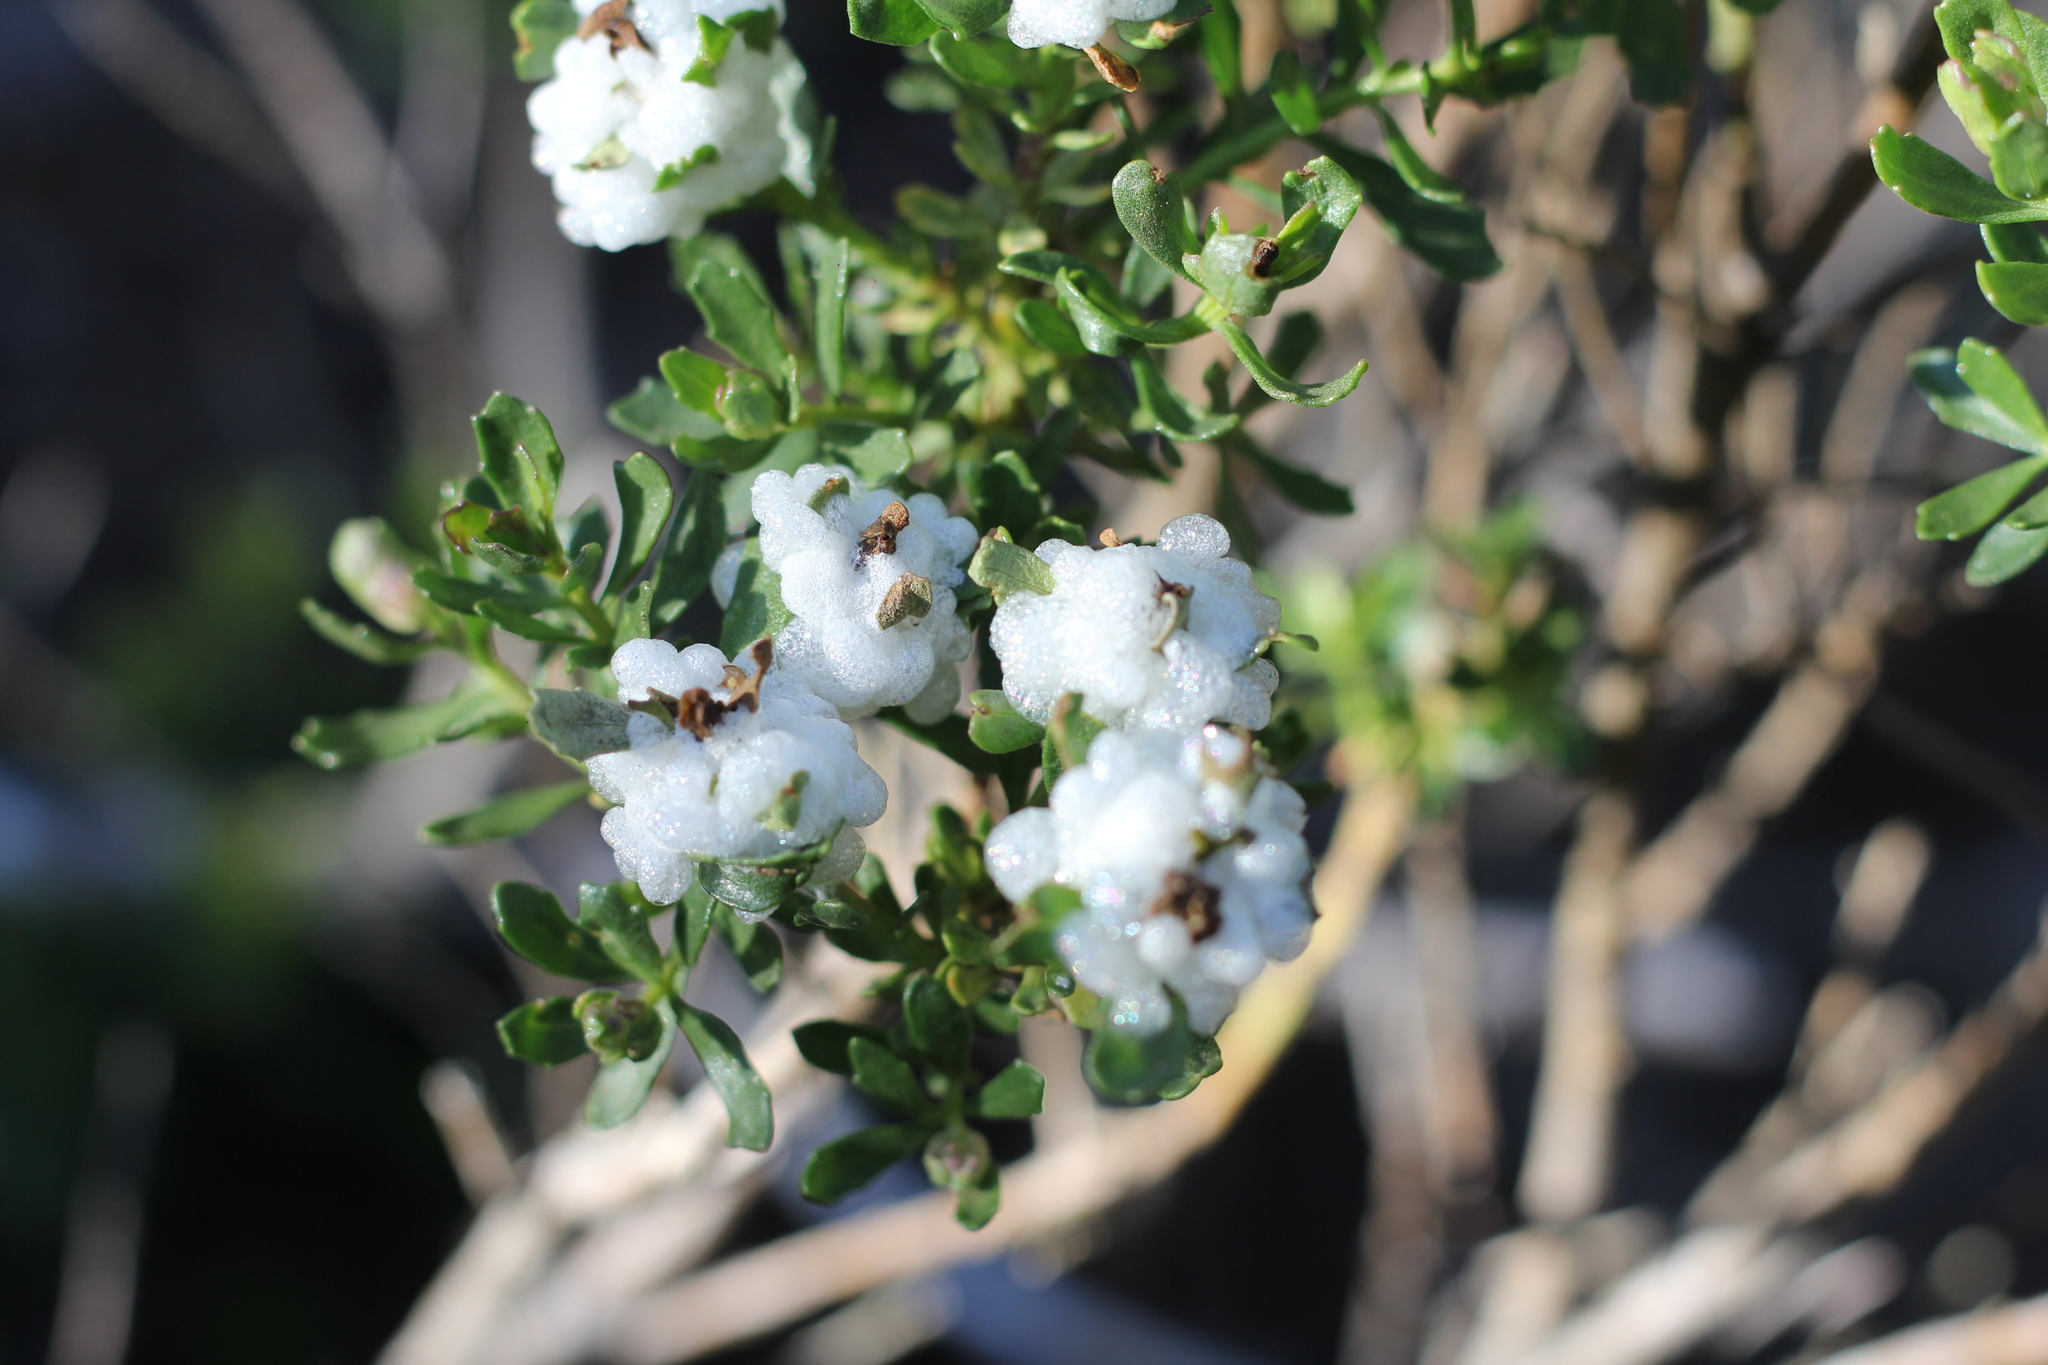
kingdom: Animalia
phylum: Arthropoda
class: Insecta
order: Diptera
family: Tephritidae
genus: Rachiptera
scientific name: Rachiptera limbata
